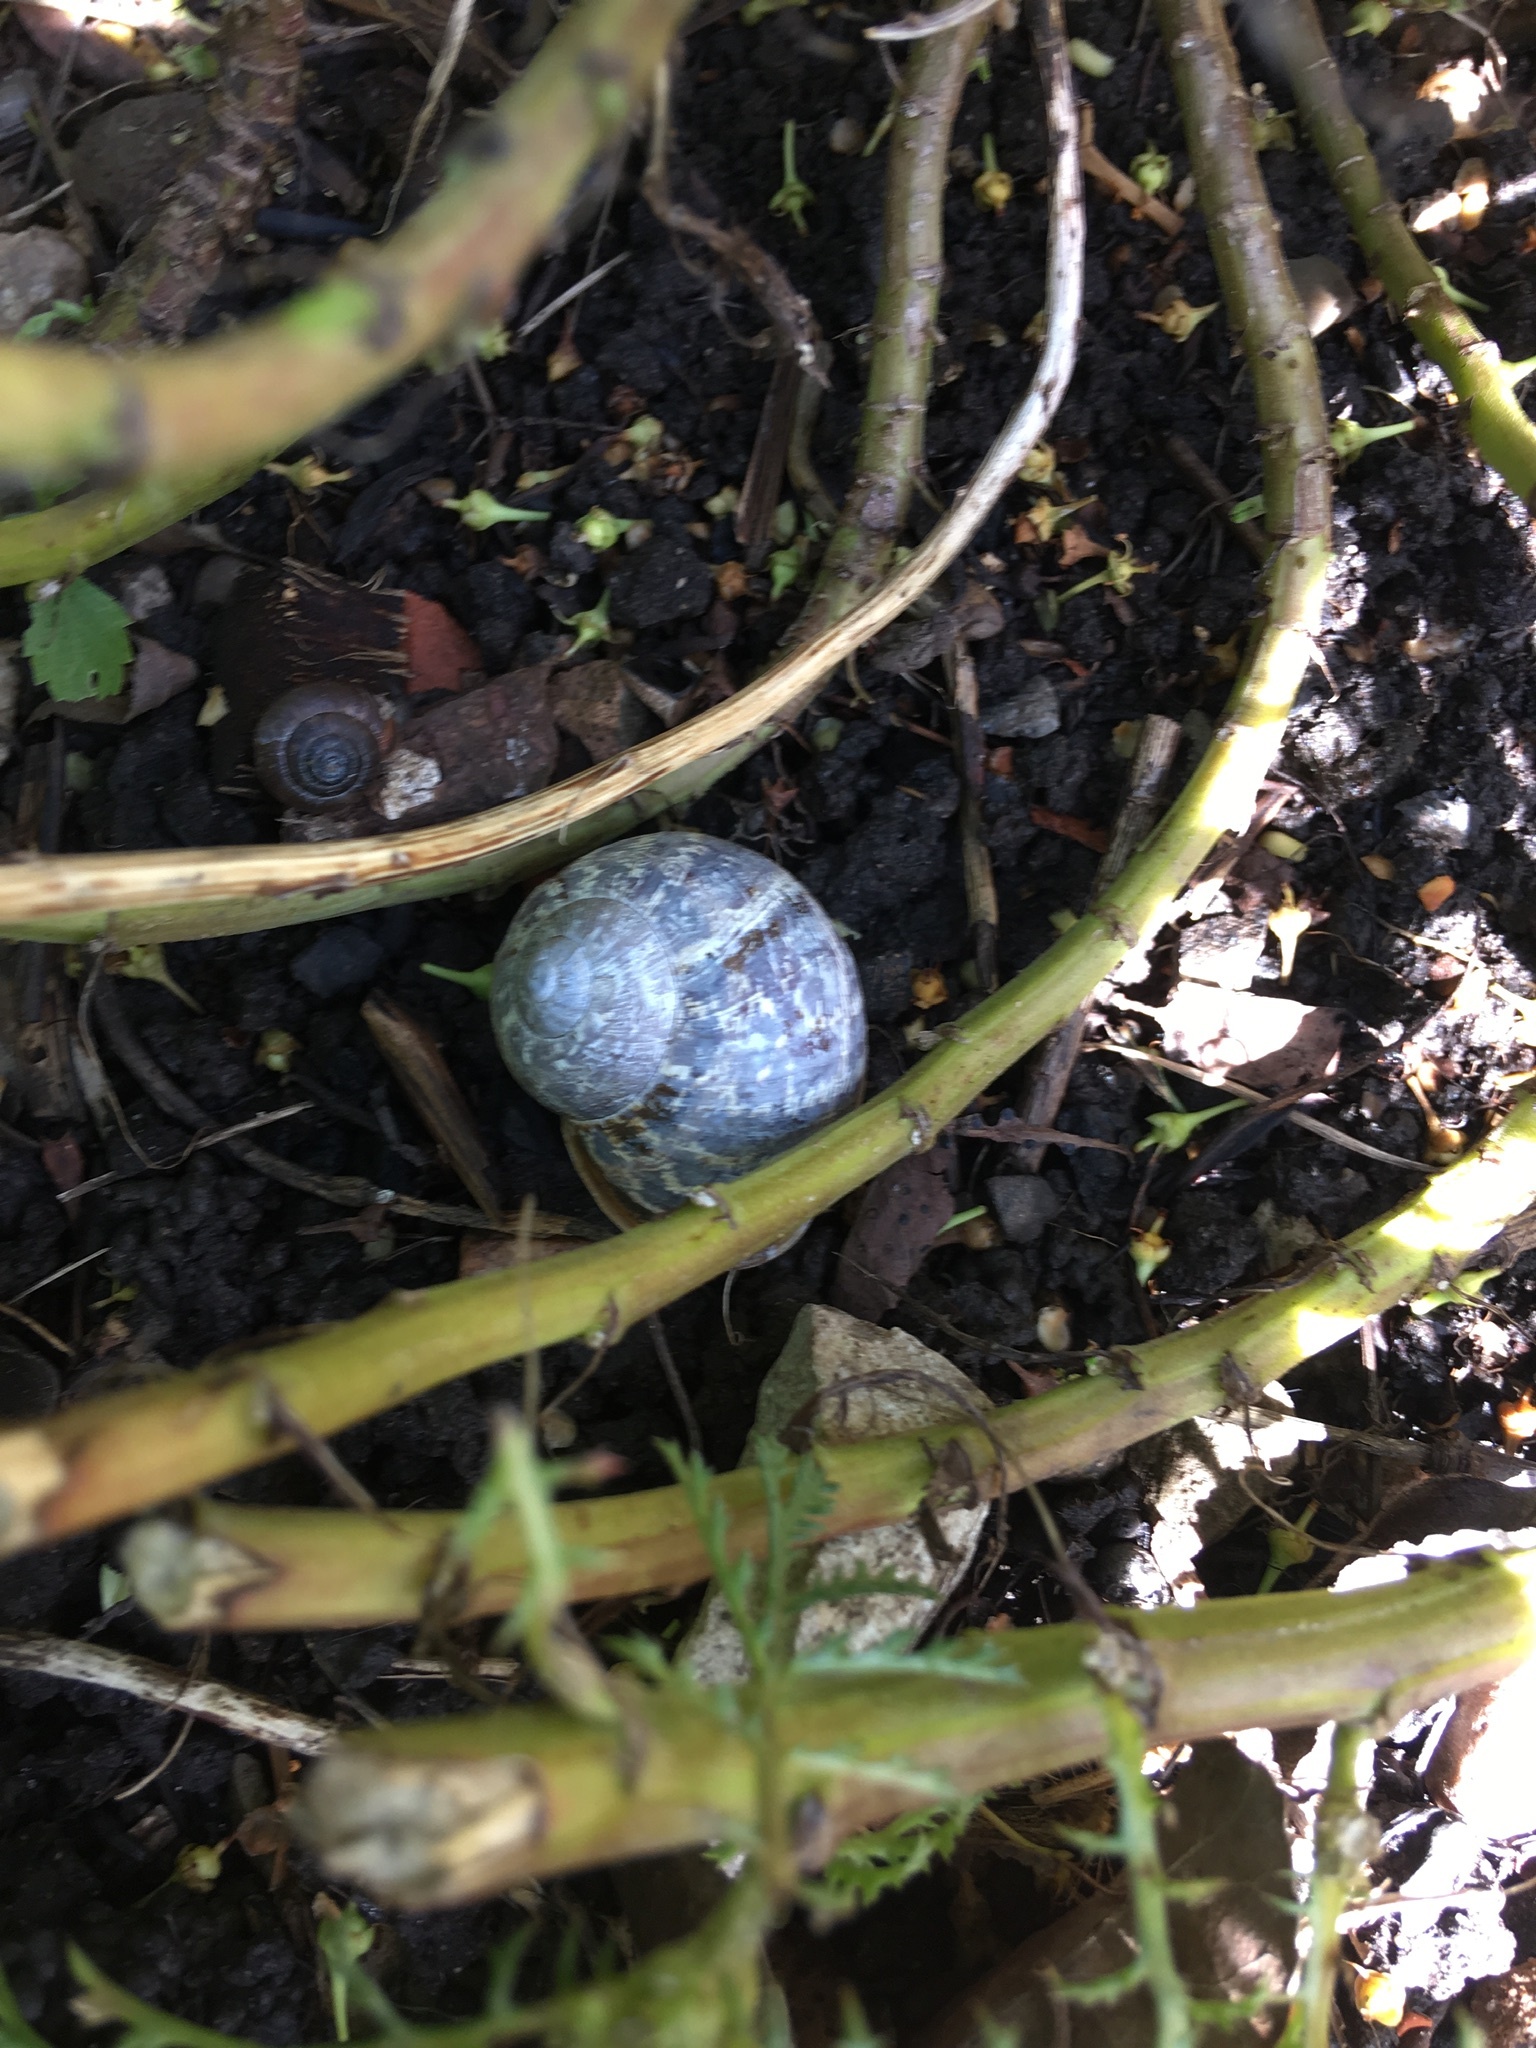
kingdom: Animalia
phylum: Mollusca
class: Gastropoda
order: Stylommatophora
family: Helicidae
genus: Cornu
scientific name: Cornu aspersum
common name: Brown garden snail
